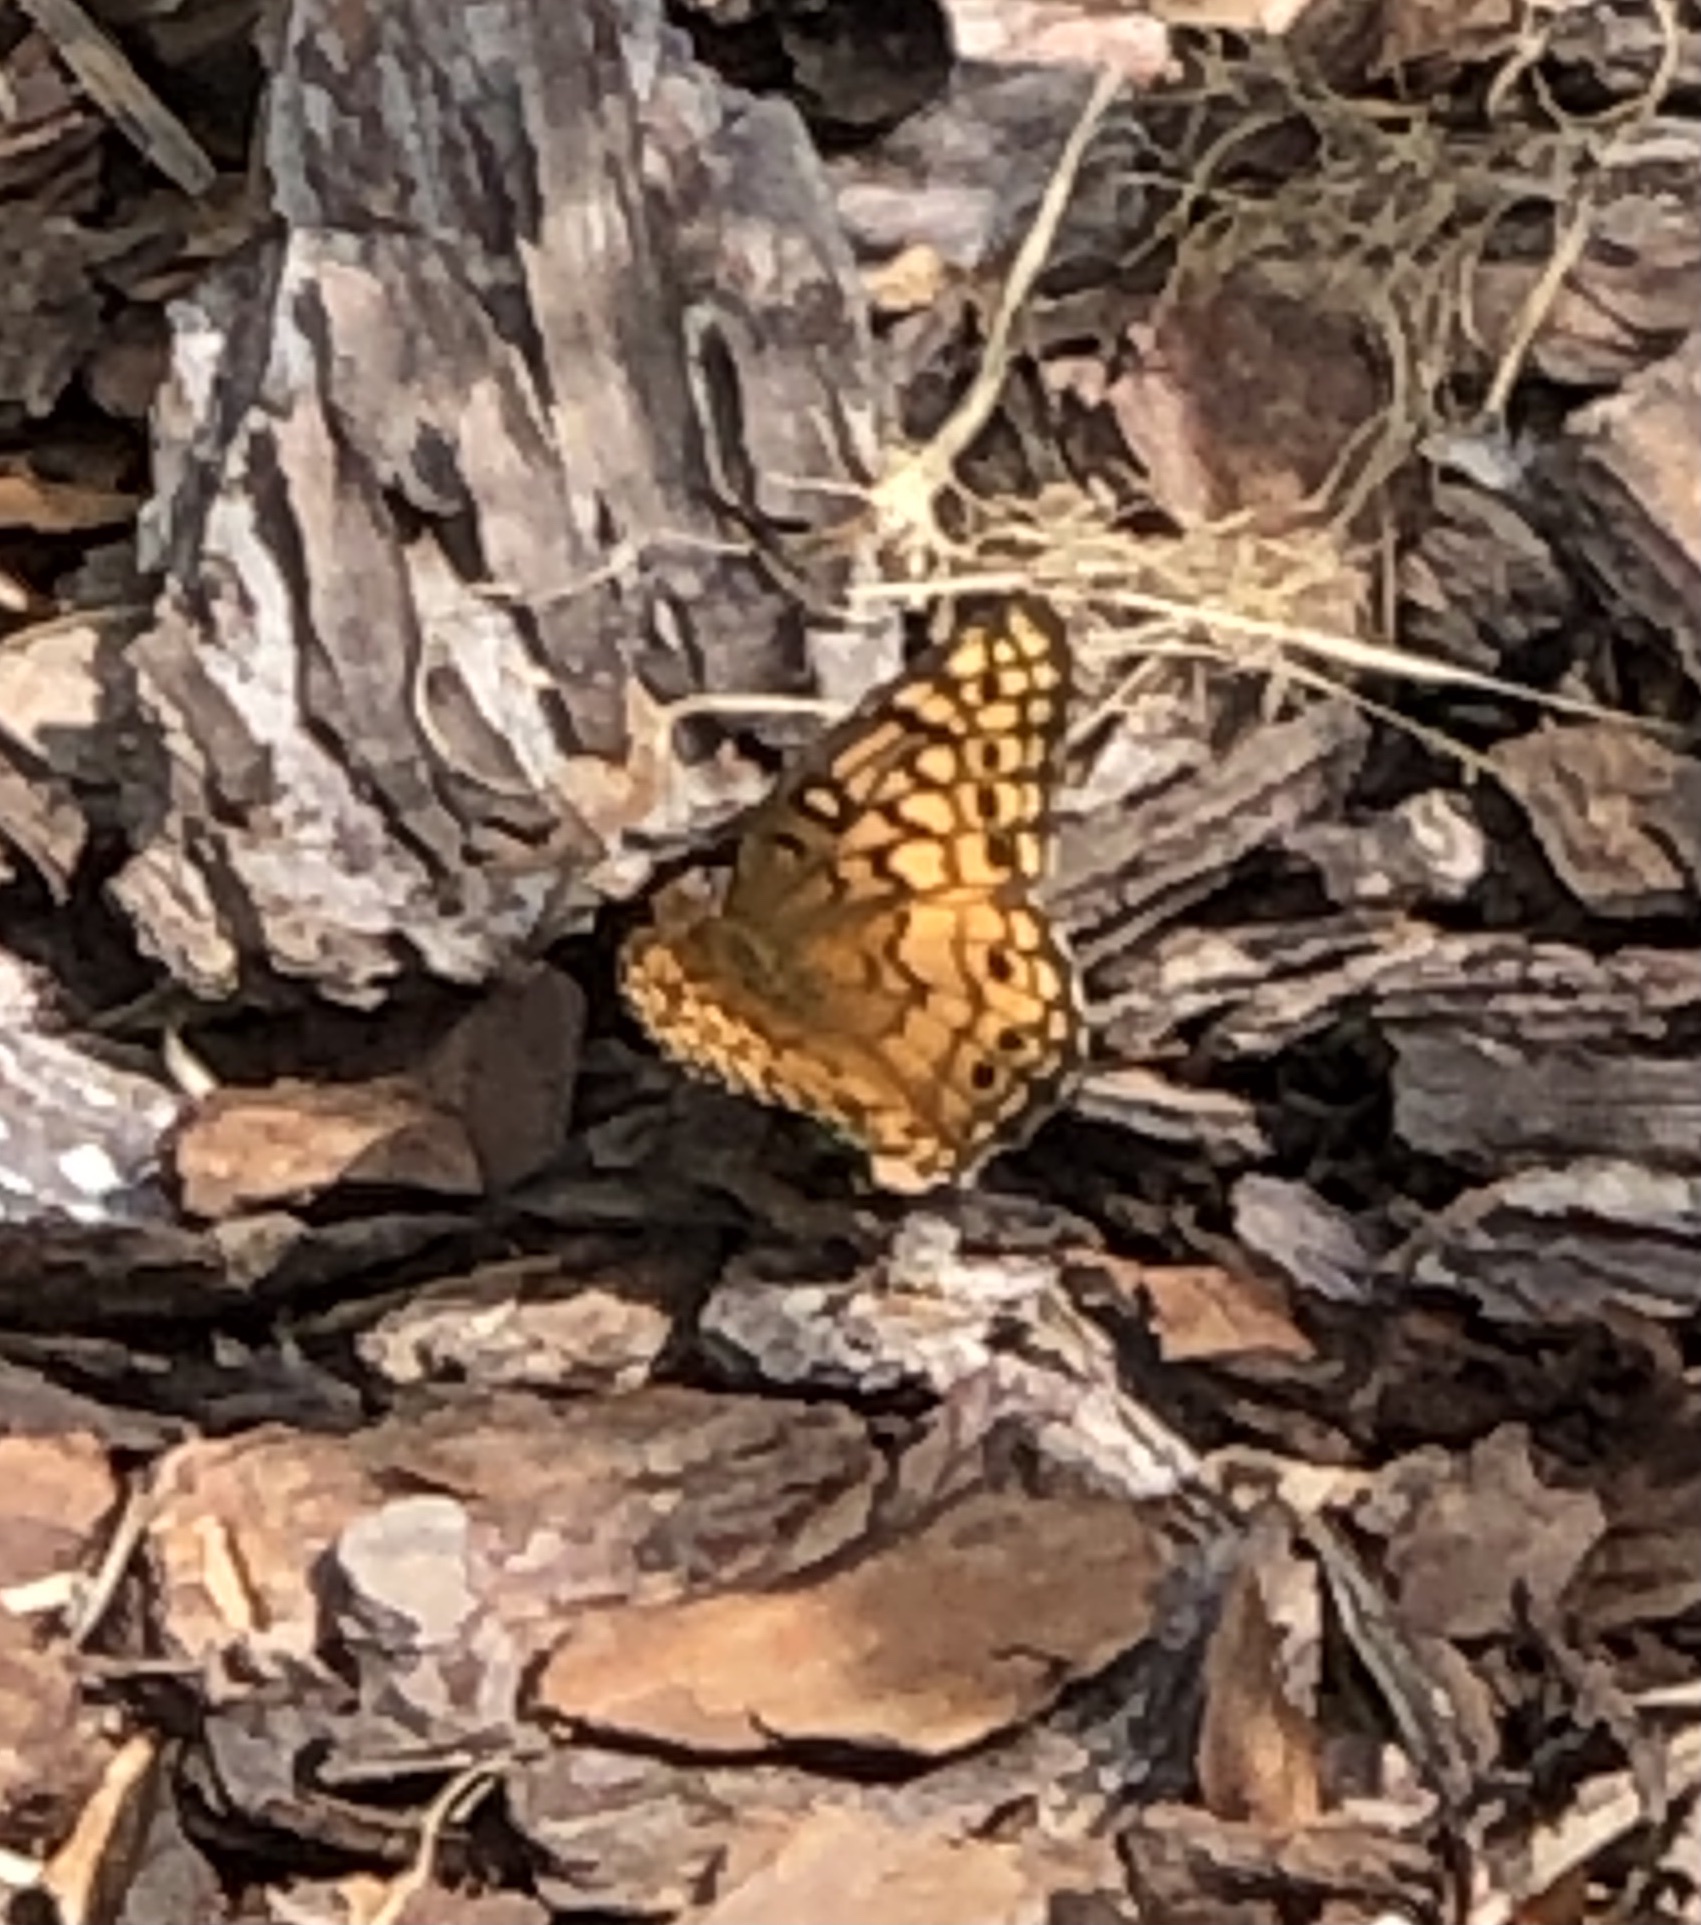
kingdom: Animalia
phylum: Arthropoda
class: Insecta
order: Lepidoptera
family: Nymphalidae
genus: Euptoieta
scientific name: Euptoieta claudia
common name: Variegated fritillary
